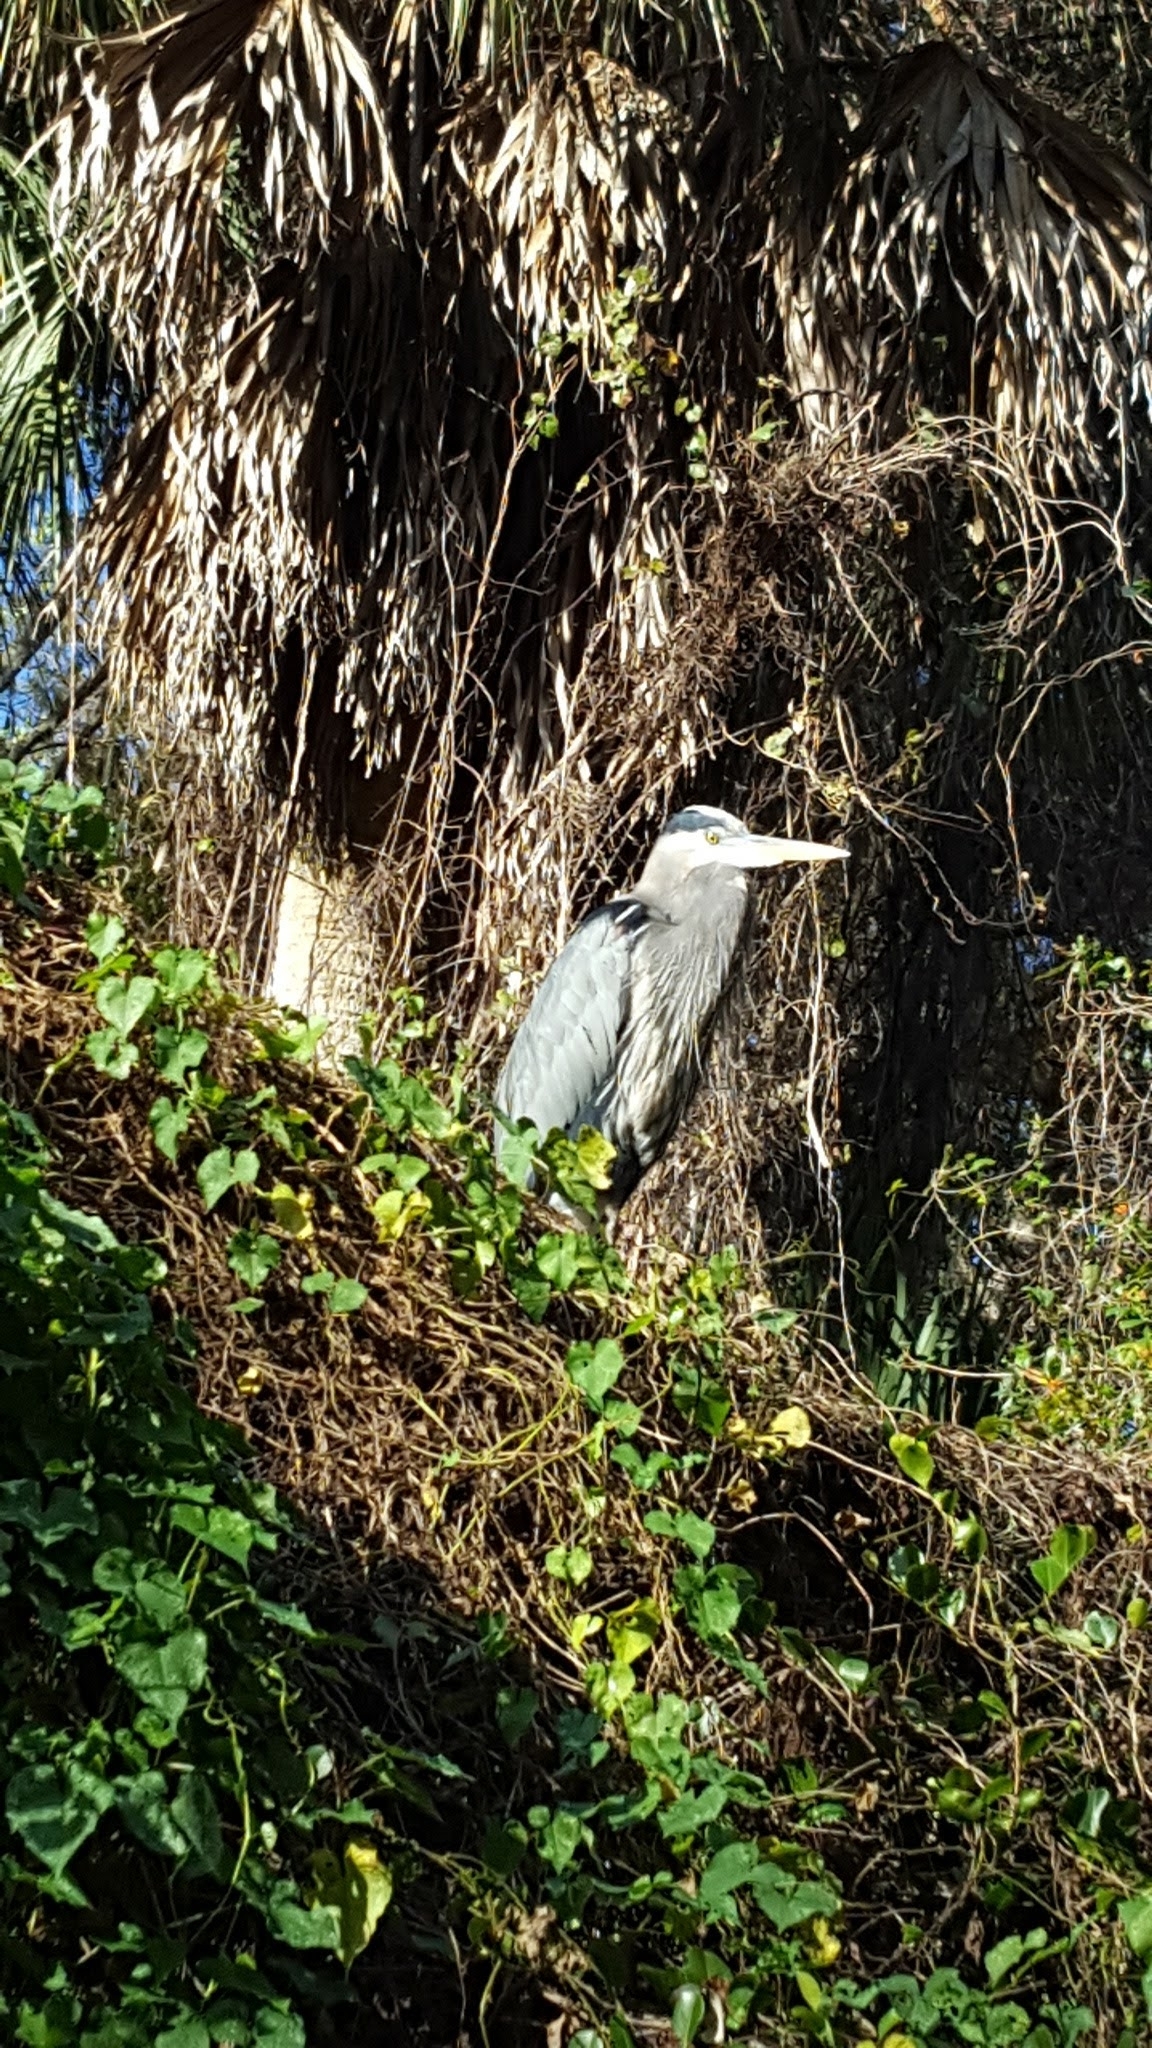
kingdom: Animalia
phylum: Chordata
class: Aves
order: Pelecaniformes
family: Ardeidae
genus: Ardea
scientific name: Ardea herodias
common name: Great blue heron
